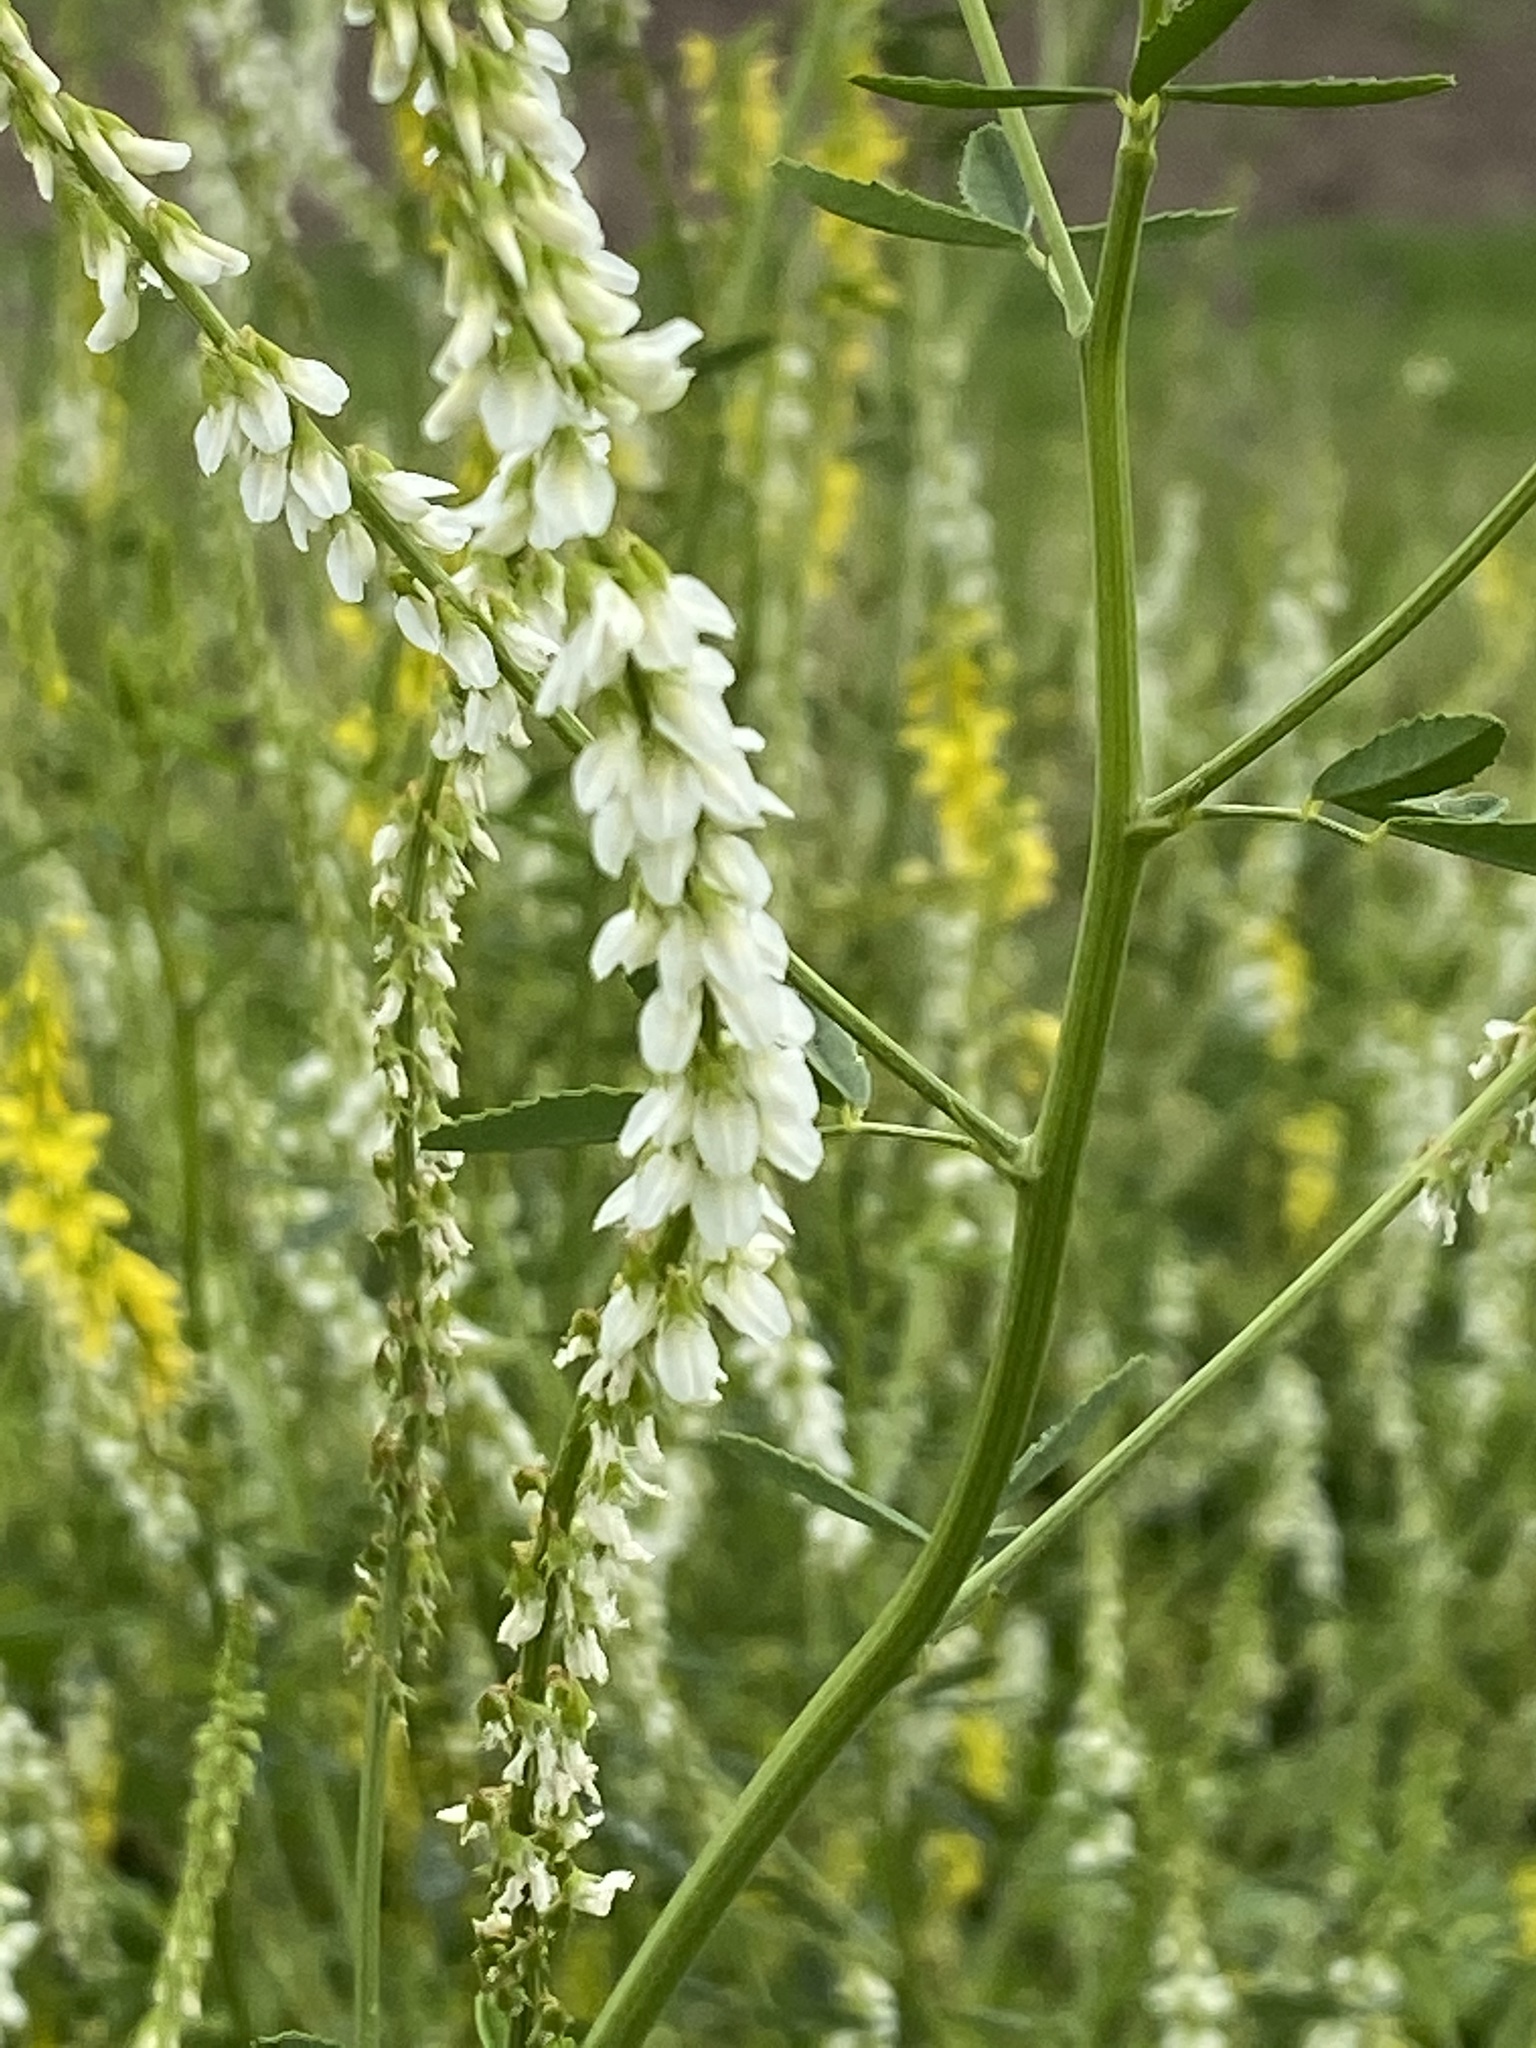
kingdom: Plantae
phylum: Tracheophyta
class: Magnoliopsida
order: Fabales
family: Fabaceae
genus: Melilotus
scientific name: Melilotus albus
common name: White melilot
